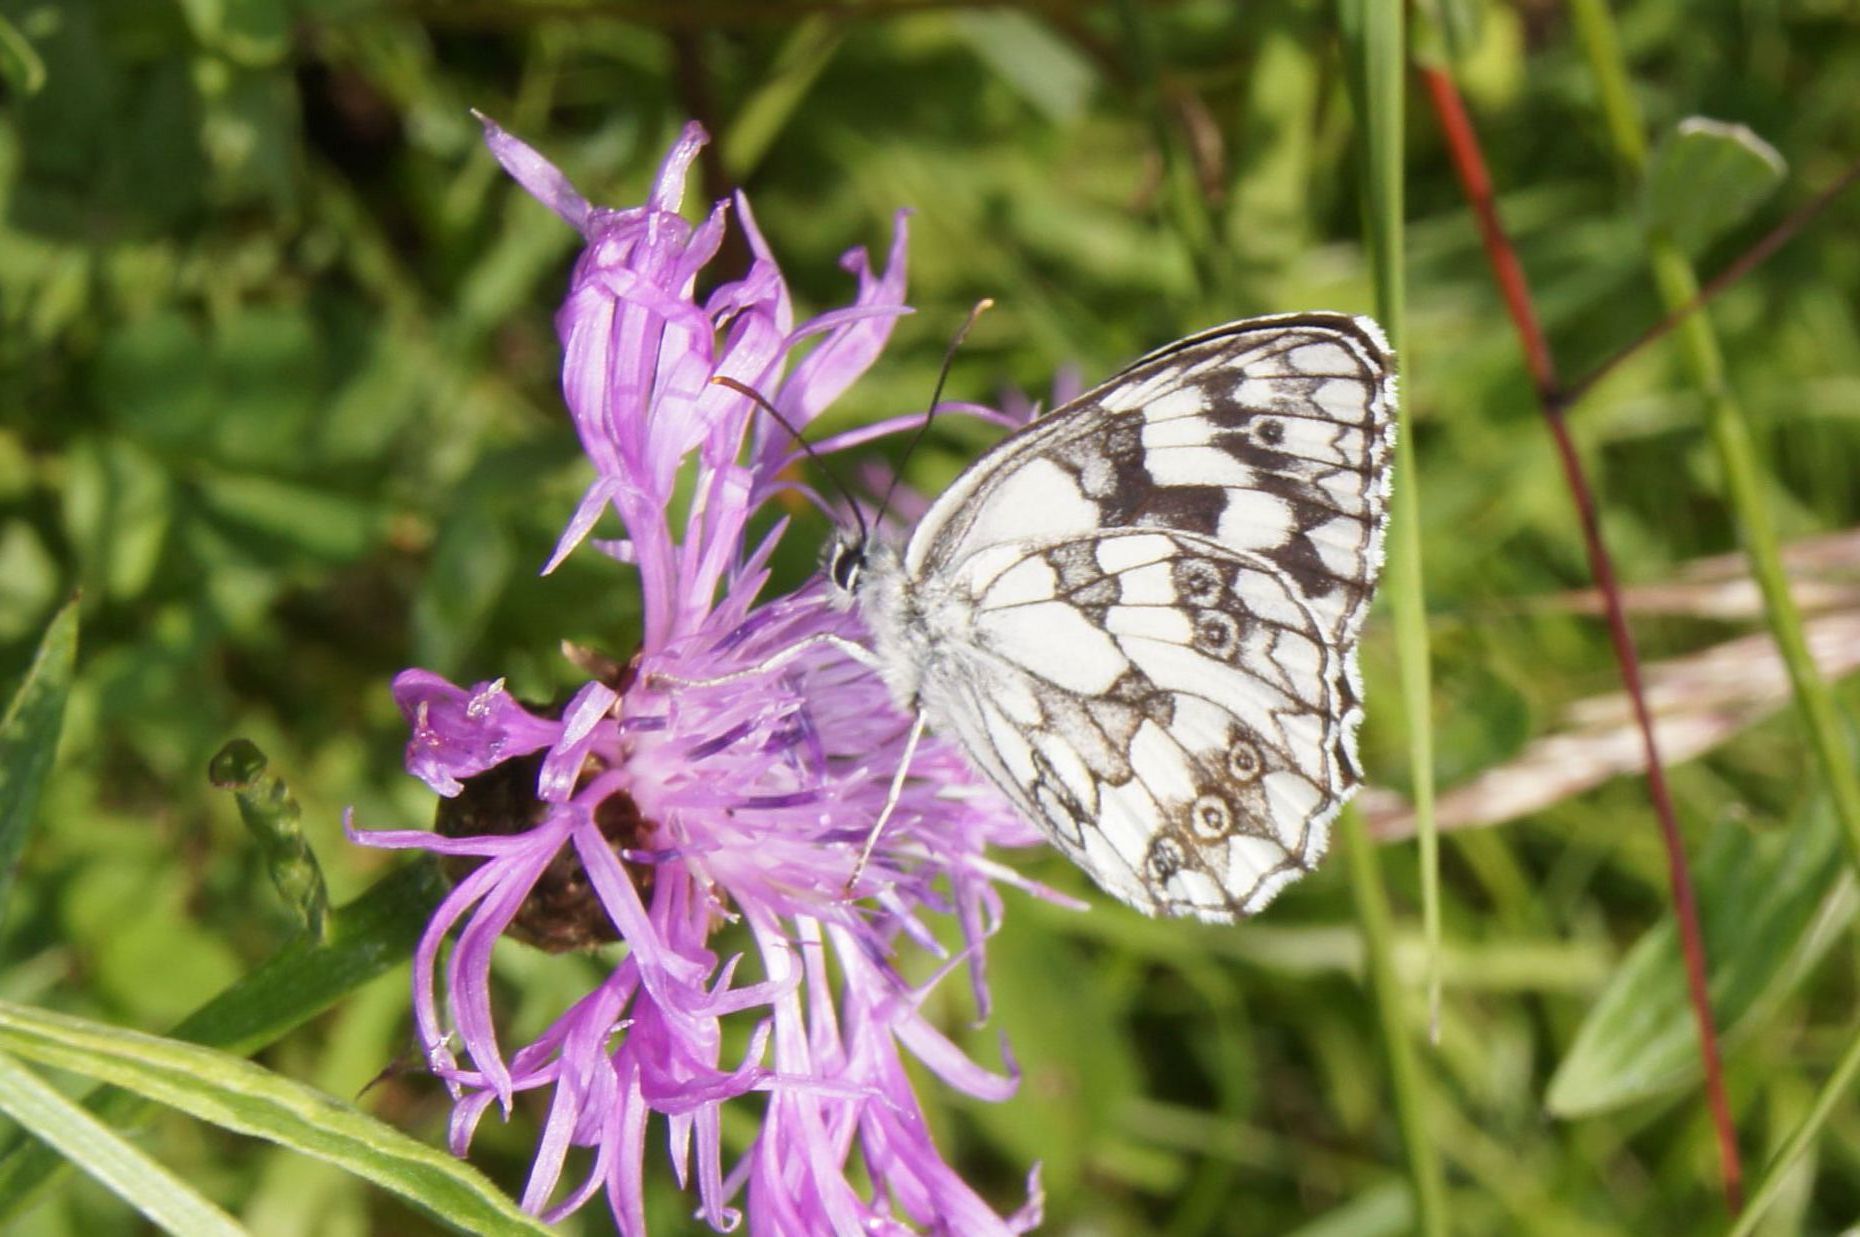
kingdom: Animalia
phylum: Arthropoda
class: Insecta
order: Lepidoptera
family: Nymphalidae
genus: Melanargia
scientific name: Melanargia galathea
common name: Marbled white
